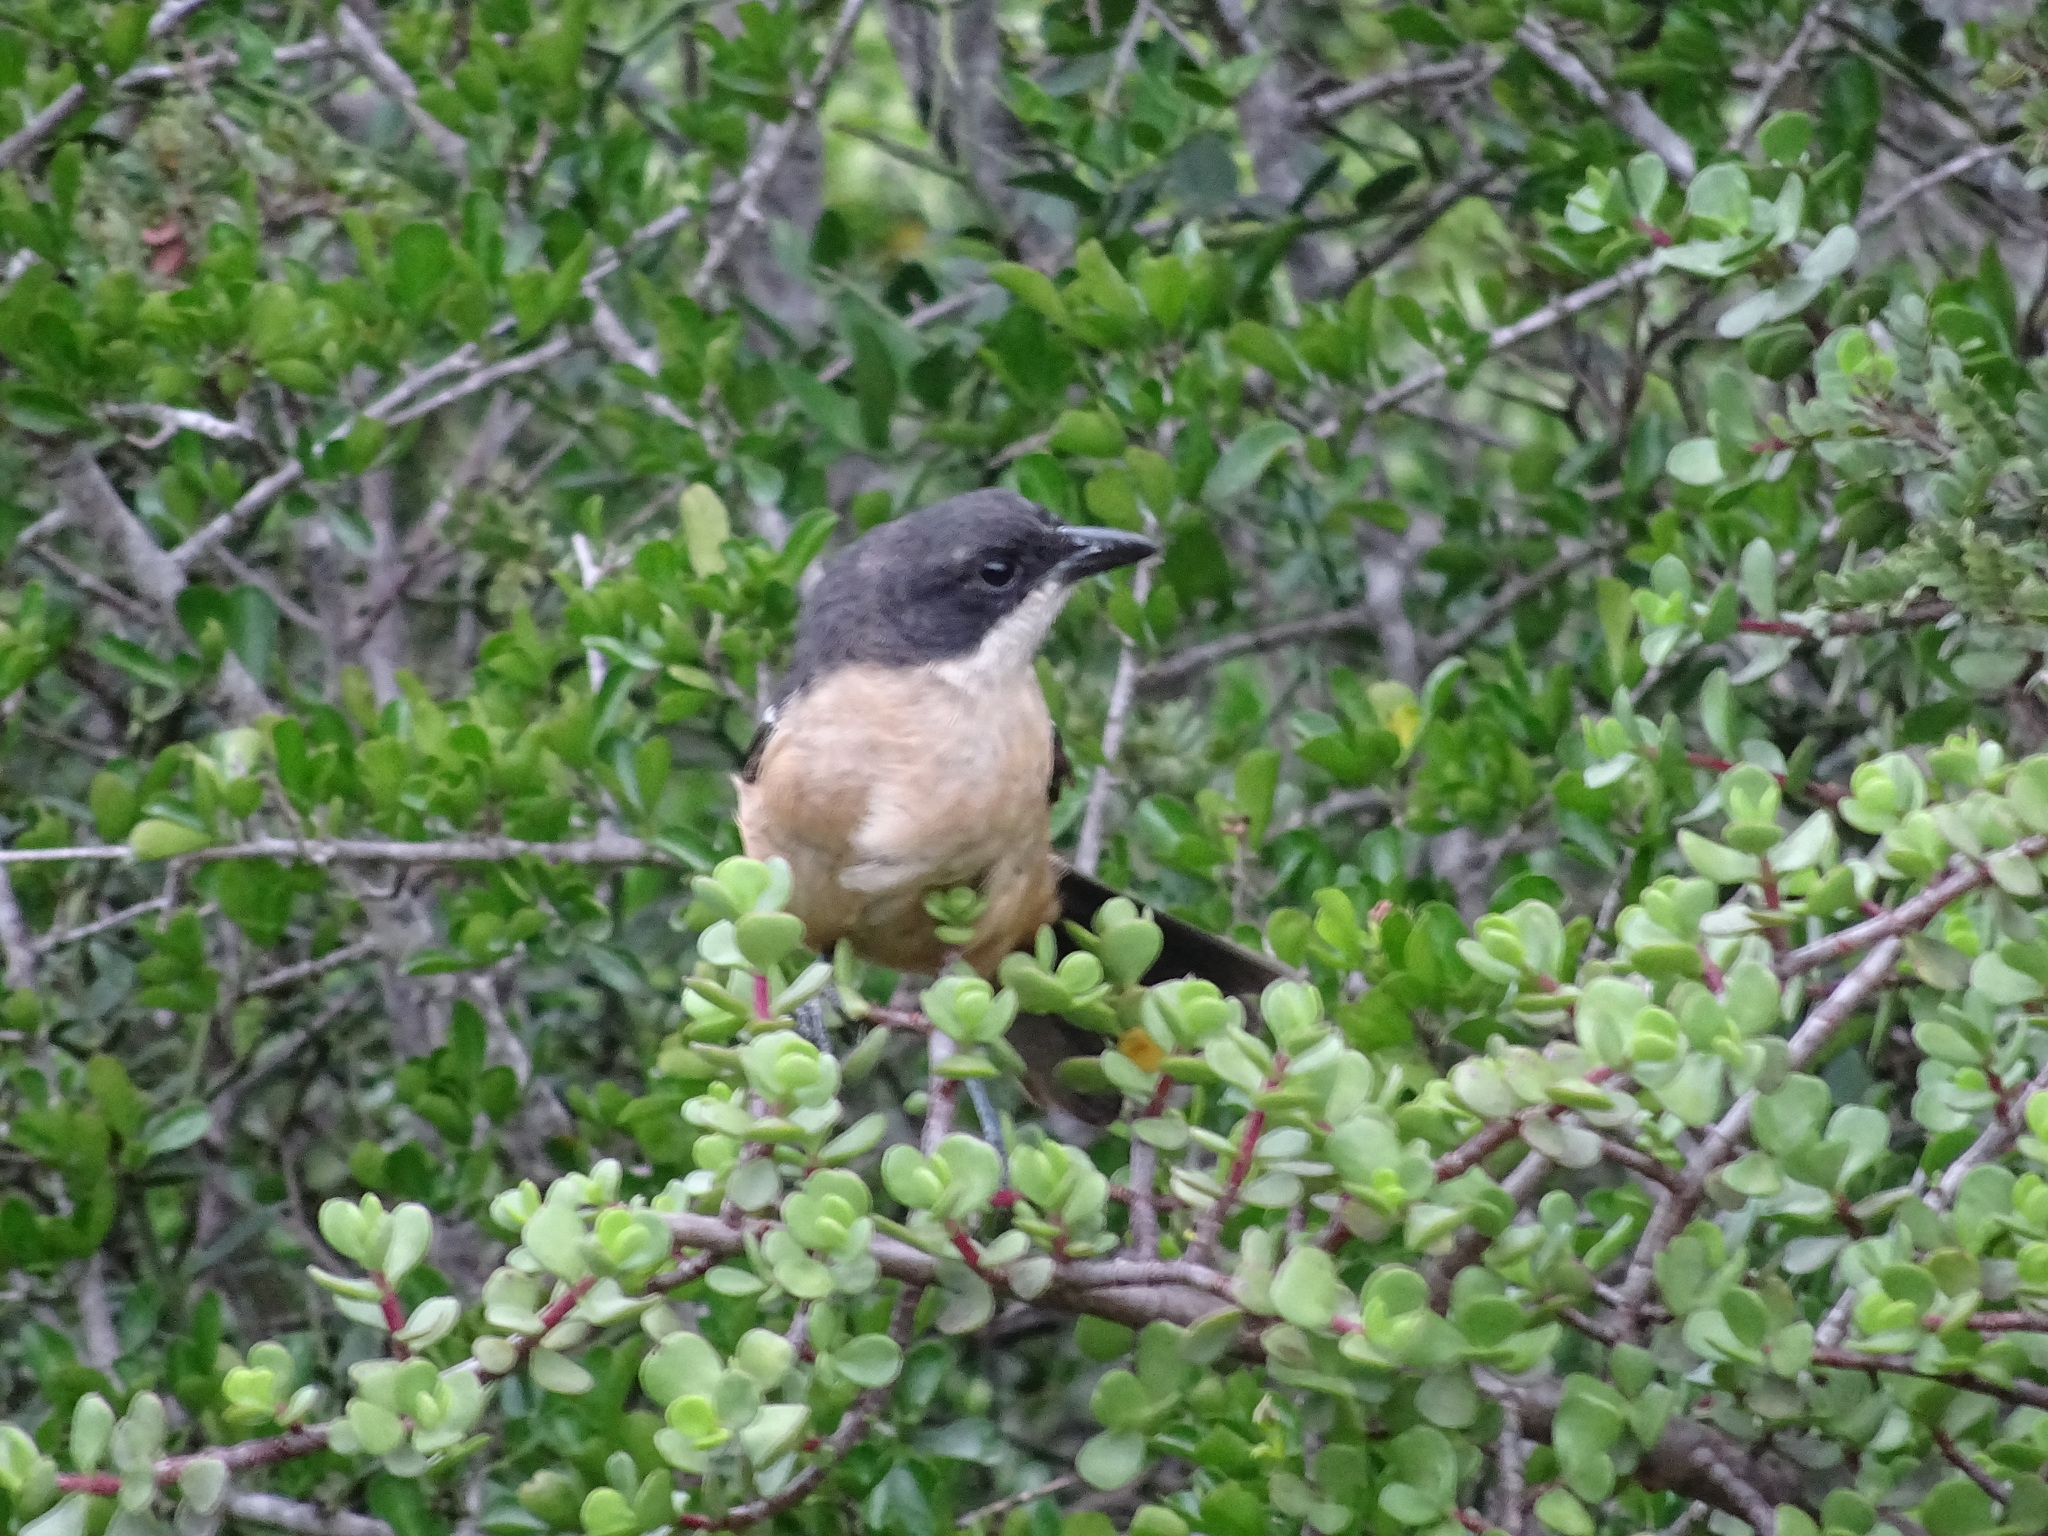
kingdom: Animalia
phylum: Chordata
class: Aves
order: Passeriformes
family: Malaconotidae
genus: Laniarius
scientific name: Laniarius ferrugineus
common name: Southern boubou
